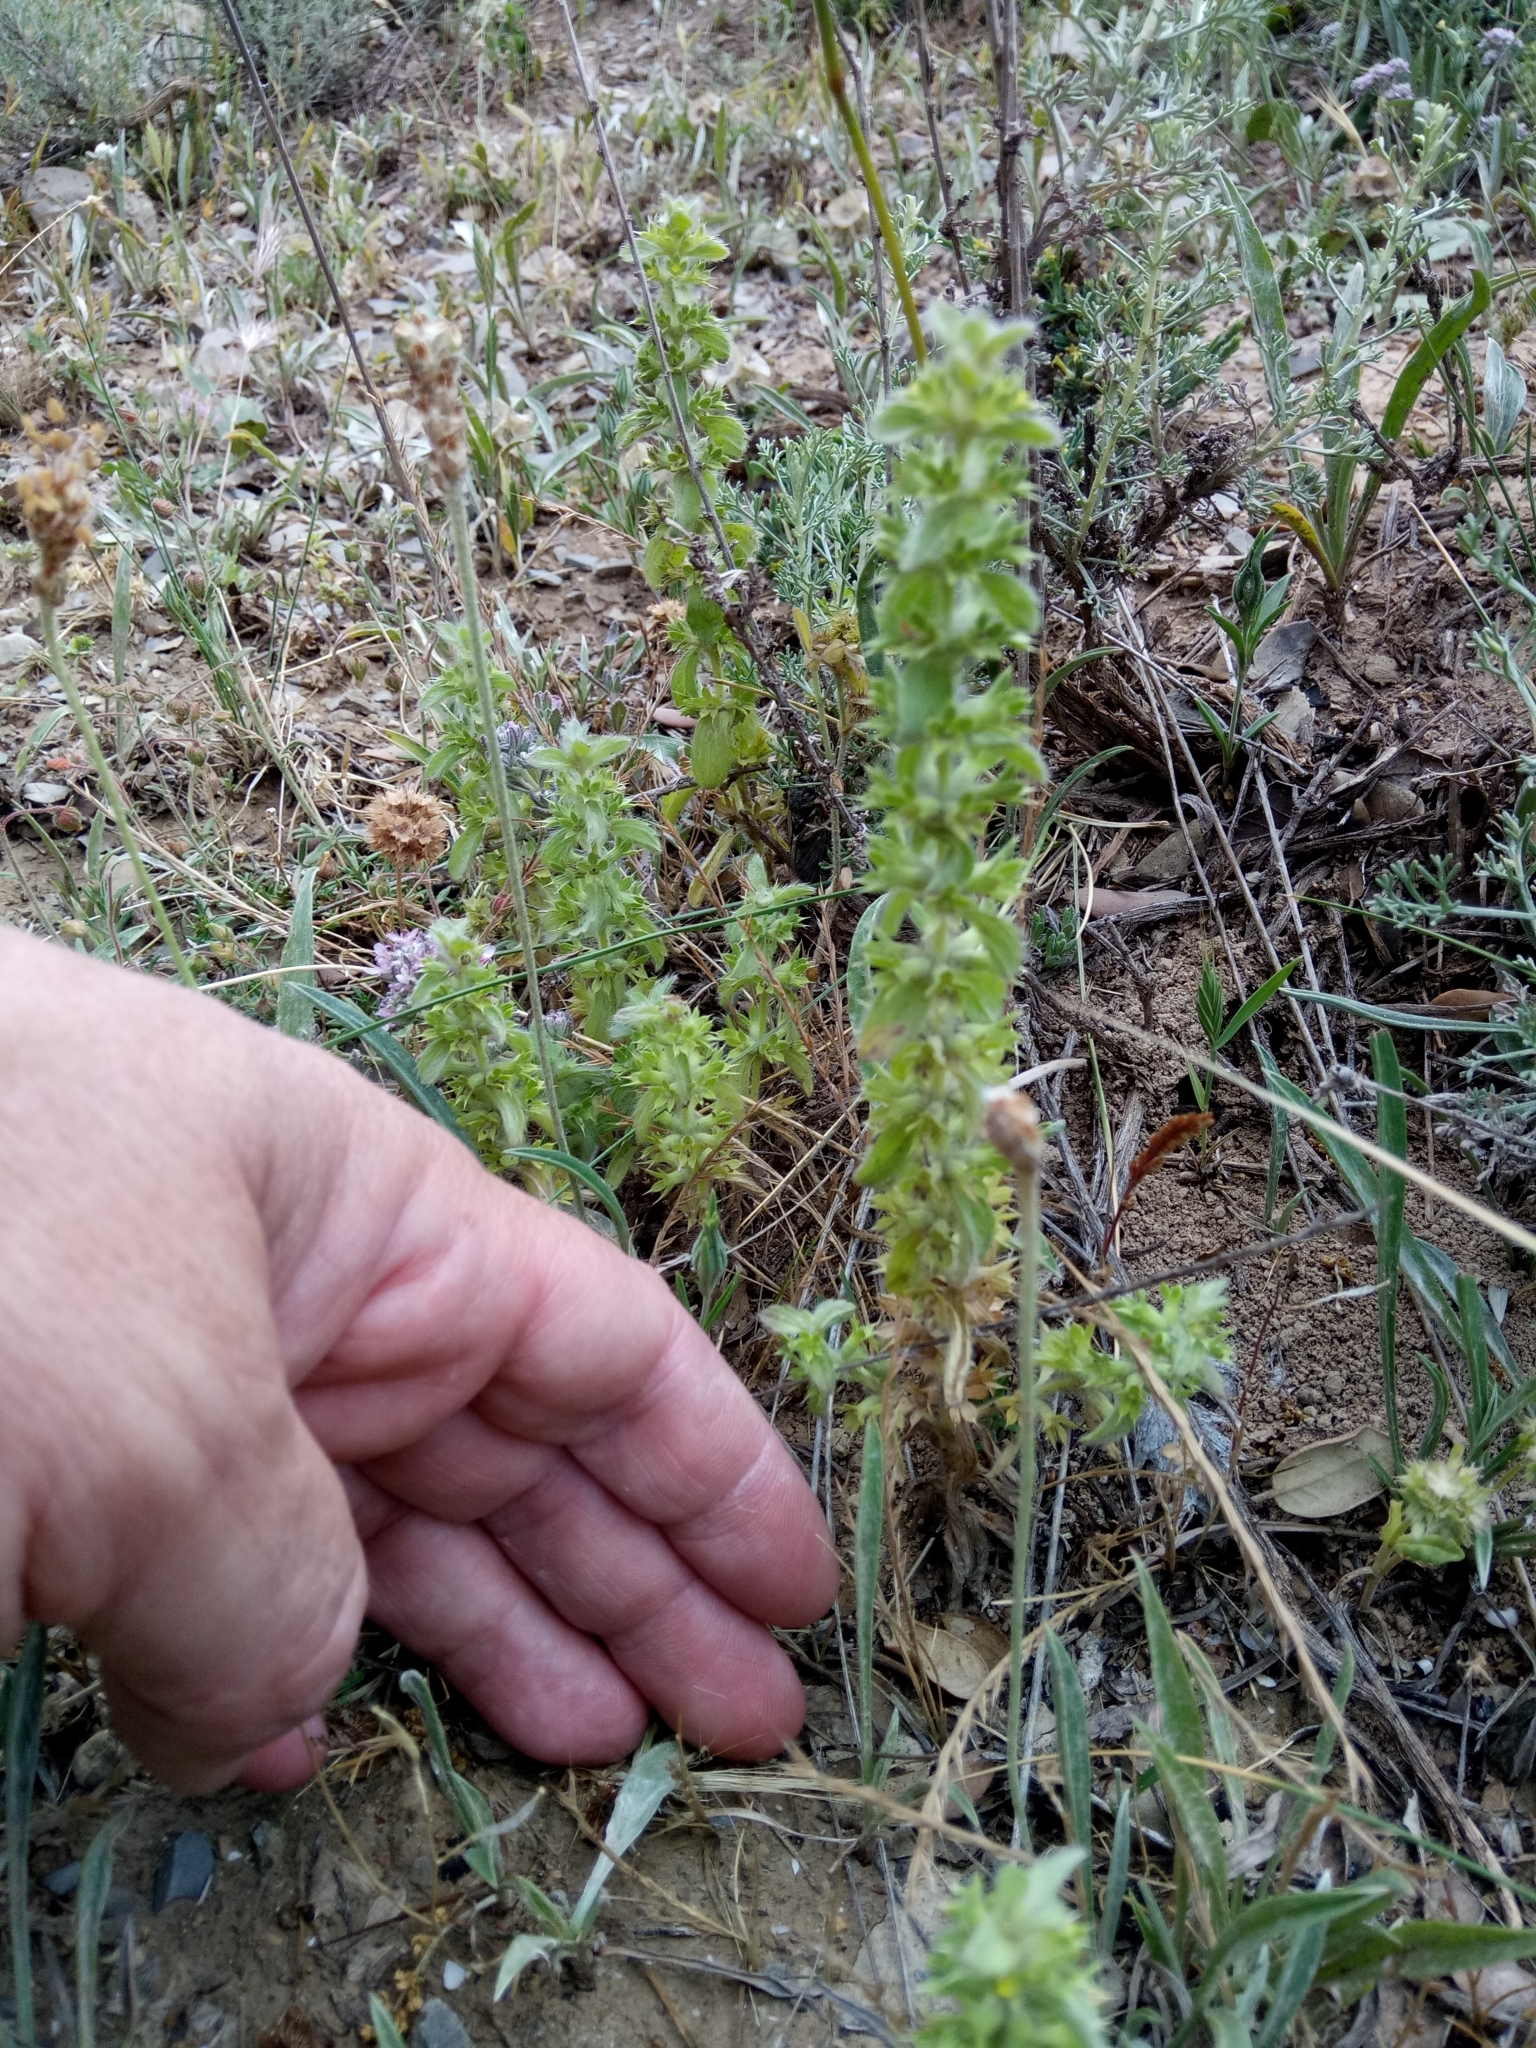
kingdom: Plantae
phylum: Tracheophyta
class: Magnoliopsida
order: Lamiales
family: Lamiaceae
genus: Sideritis
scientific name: Sideritis montana
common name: Mountain ironwort
